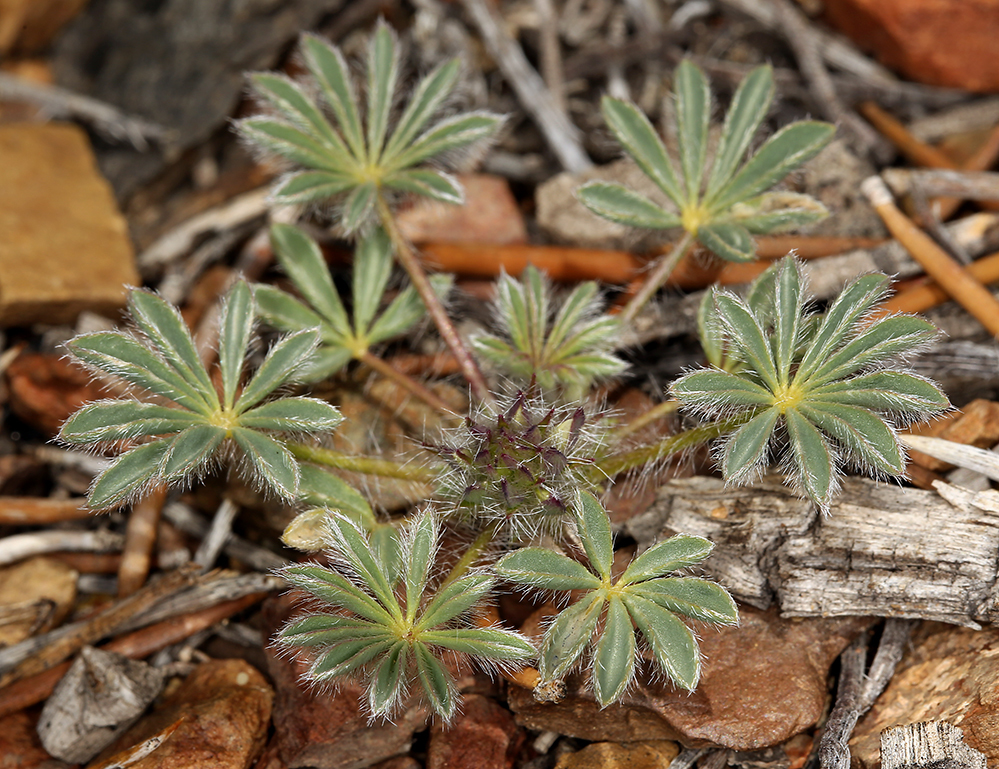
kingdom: Plantae
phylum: Tracheophyta
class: Magnoliopsida
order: Fabales
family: Fabaceae
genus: Lupinus
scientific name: Lupinus flavoculatus
